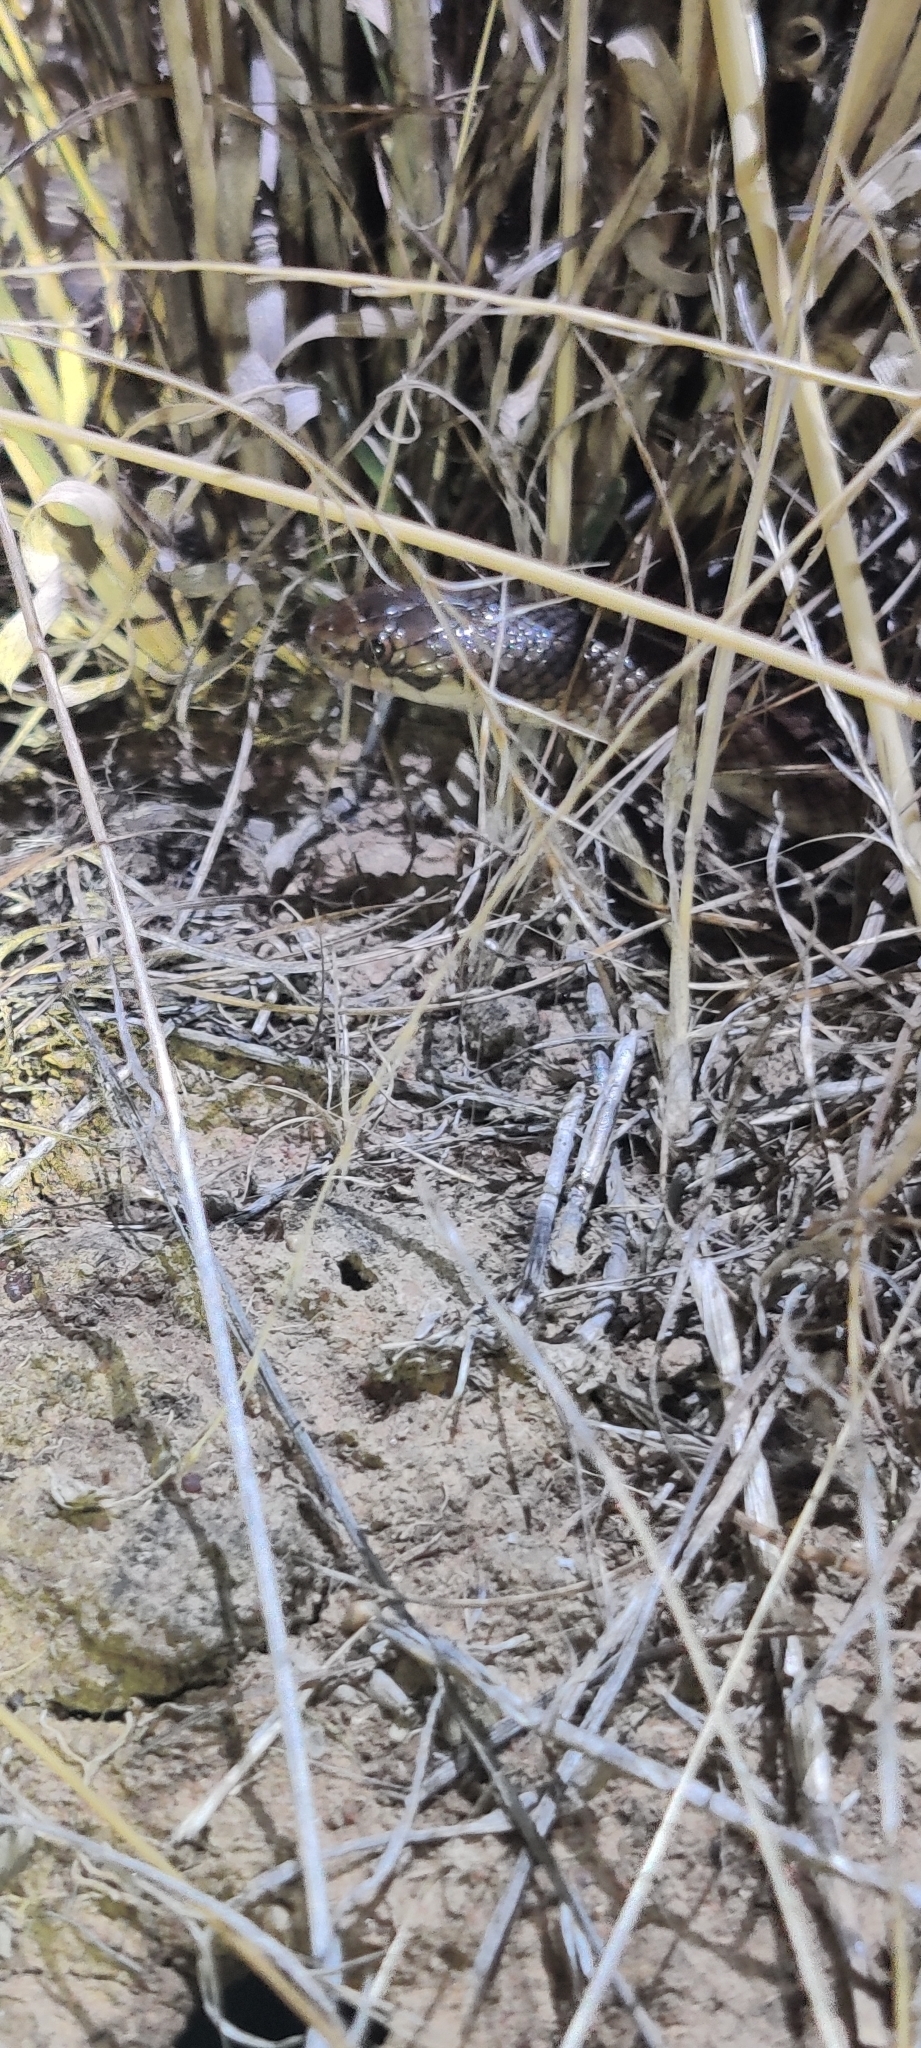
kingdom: Animalia
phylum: Chordata
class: Squamata
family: Elapidae
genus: Suta
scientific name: Suta suta
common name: Curl snake
